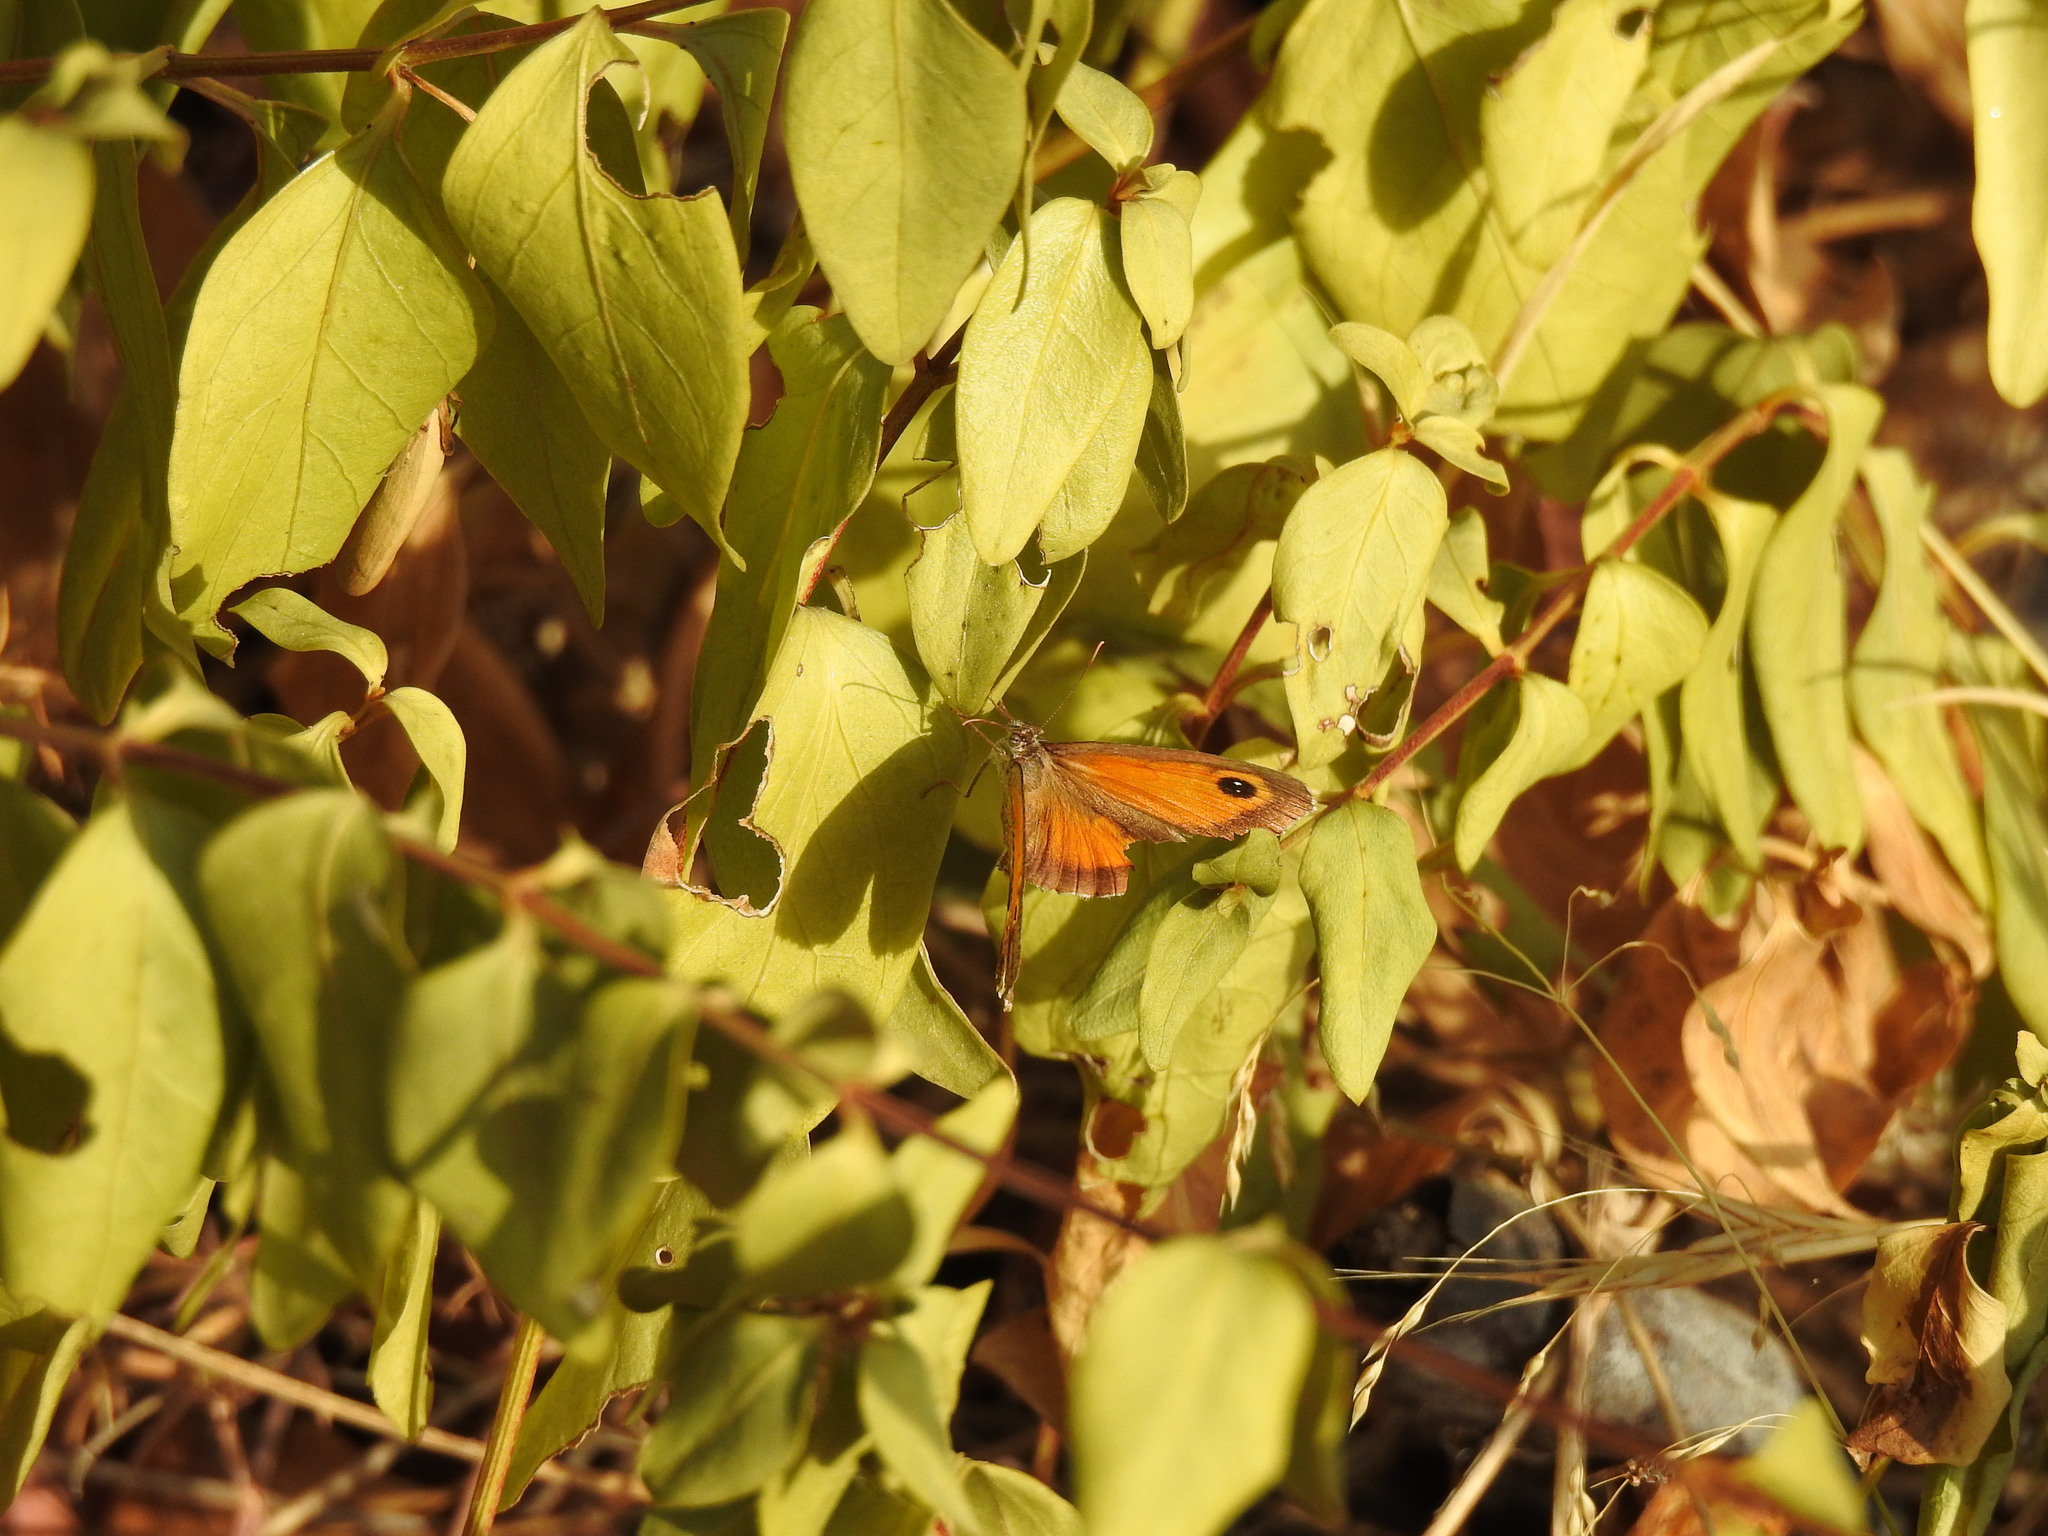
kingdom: Animalia
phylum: Arthropoda
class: Insecta
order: Lepidoptera
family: Nymphalidae
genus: Pyronia
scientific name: Pyronia cecilia
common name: Southern gatekeeper
